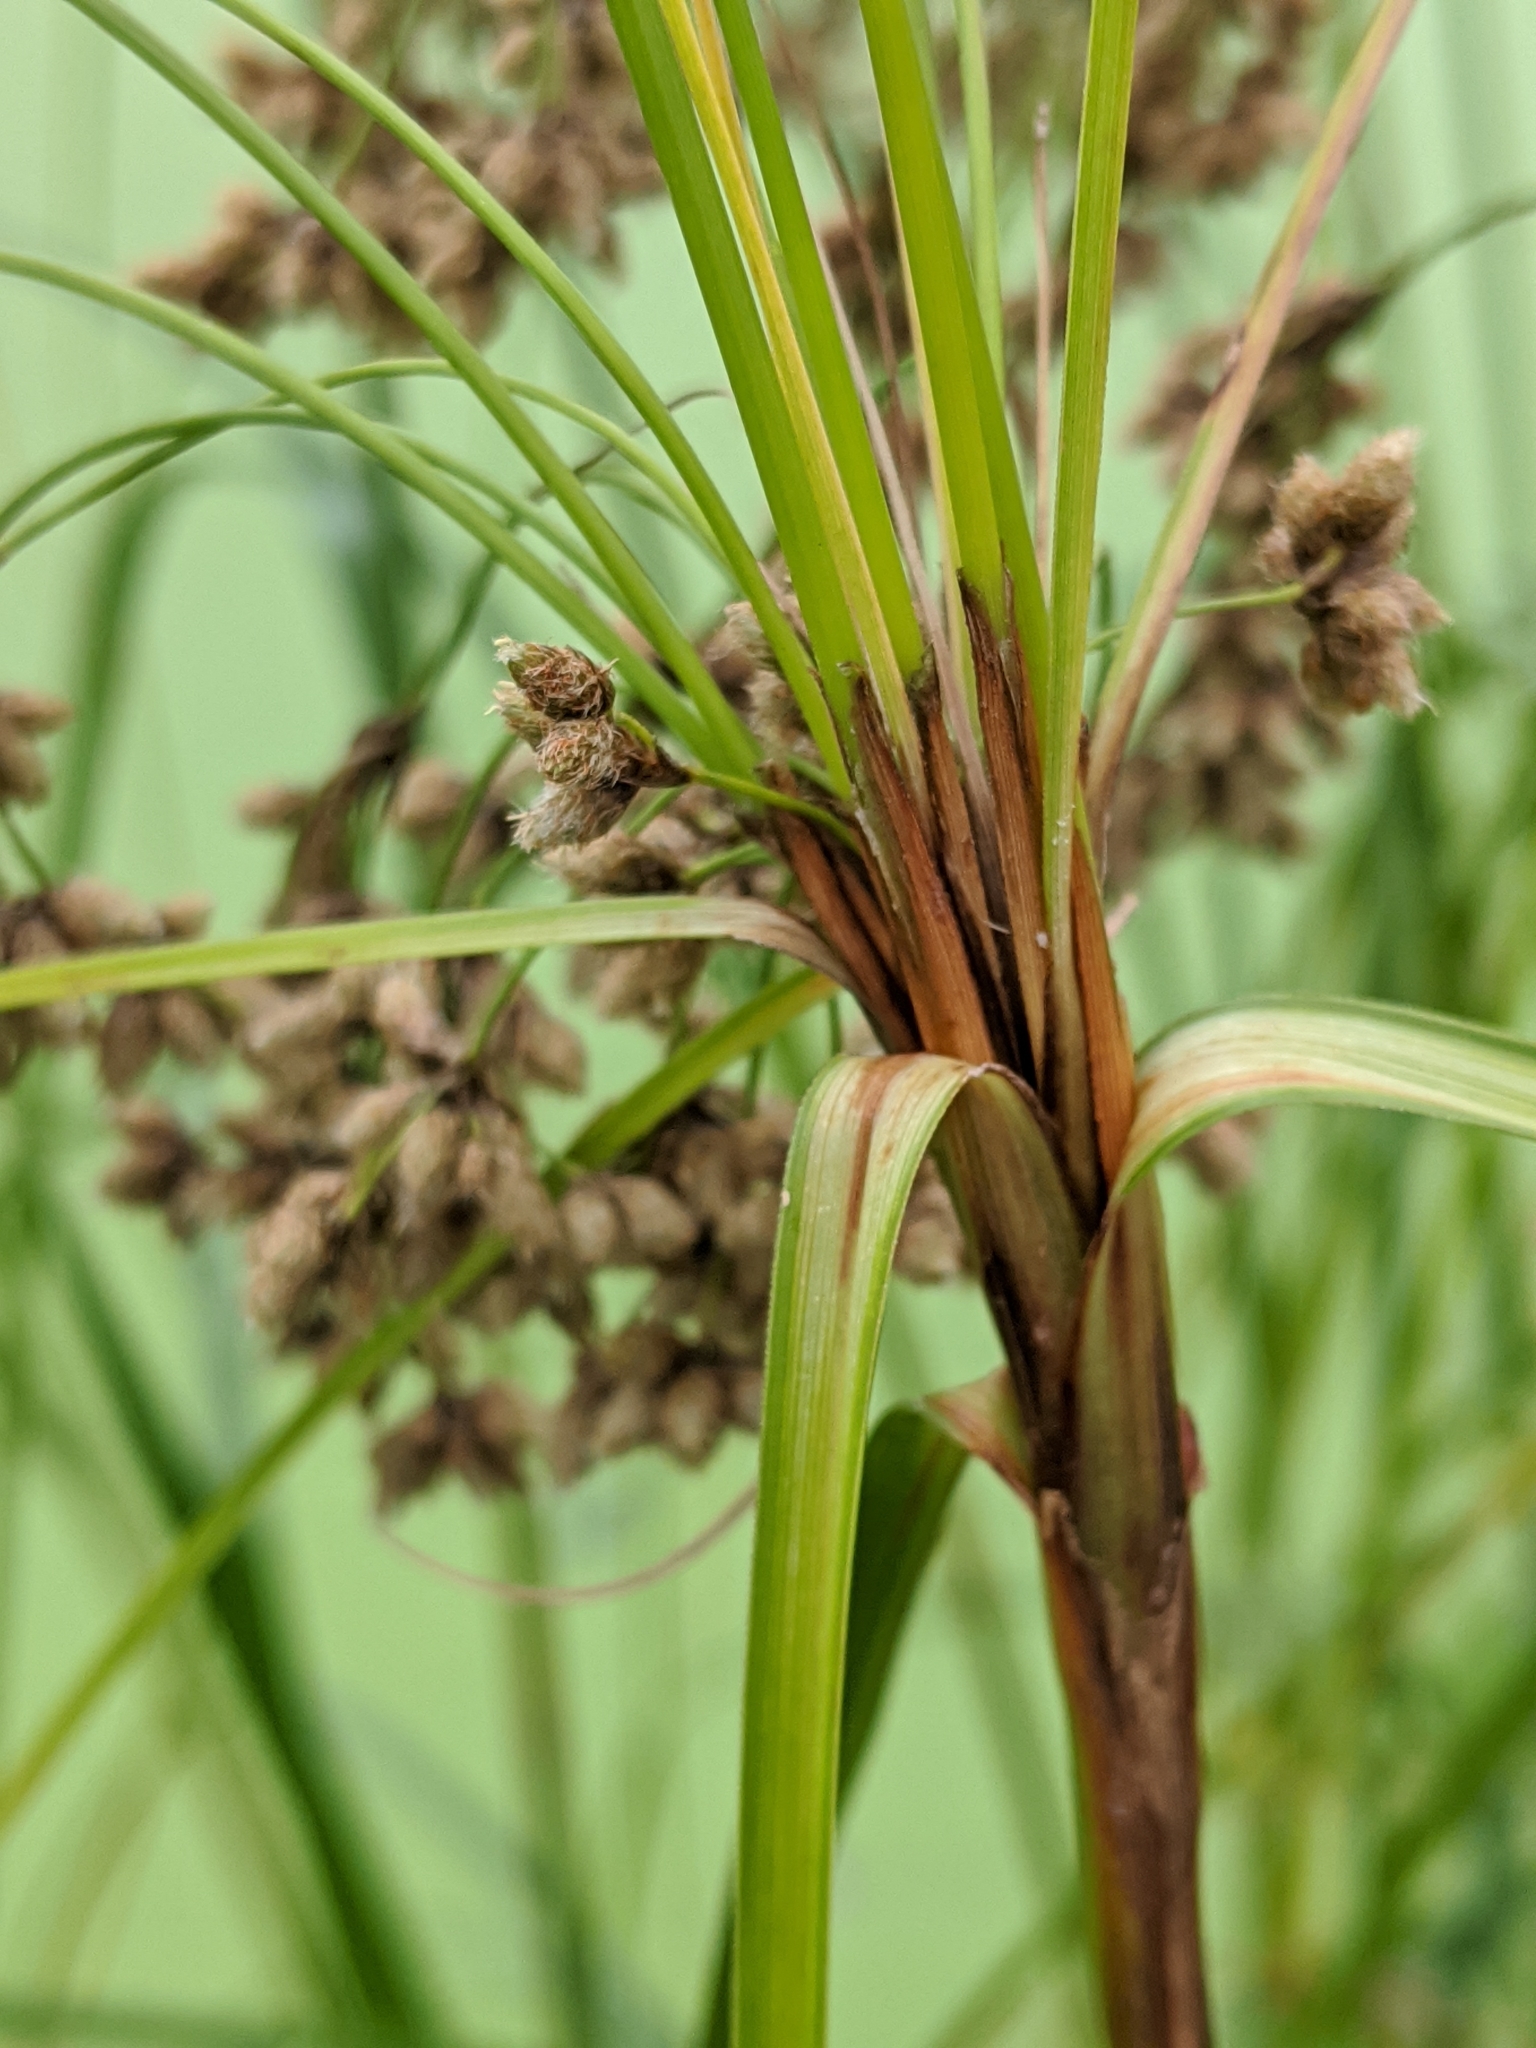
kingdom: Plantae
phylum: Tracheophyta
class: Liliopsida
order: Poales
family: Cyperaceae
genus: Scirpus
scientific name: Scirpus cyperinus
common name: Black-sheathed bulrush
